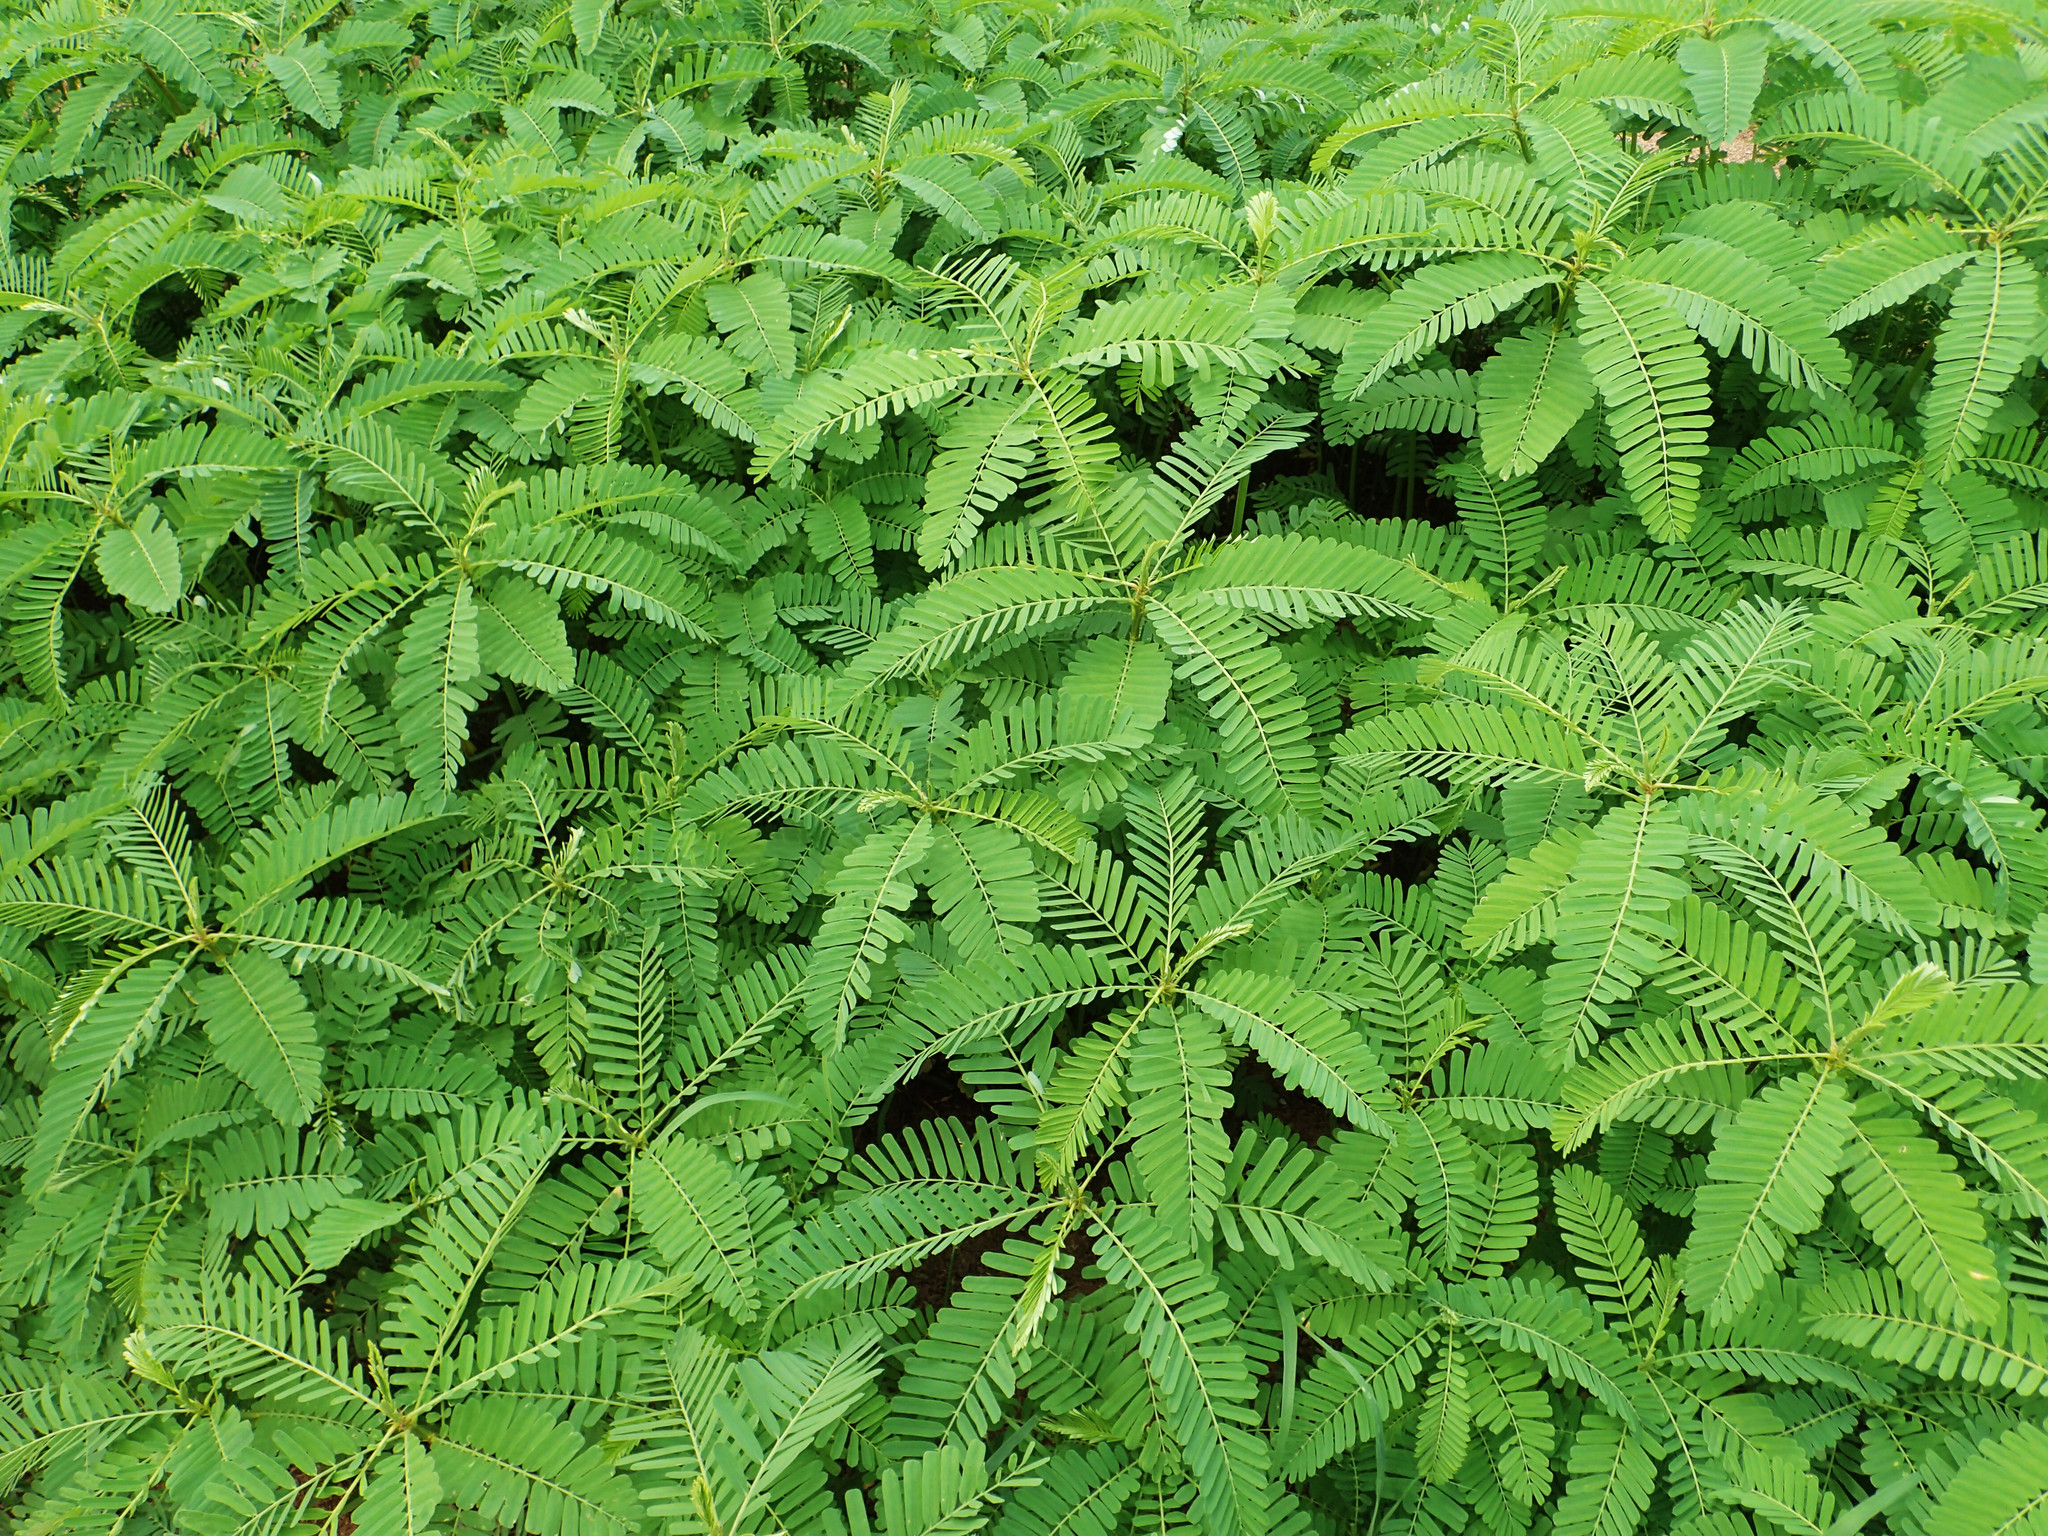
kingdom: Plantae
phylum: Tracheophyta
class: Magnoliopsida
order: Fabales
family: Fabaceae
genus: Sesbania
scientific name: Sesbania cannabina
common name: Canicha
